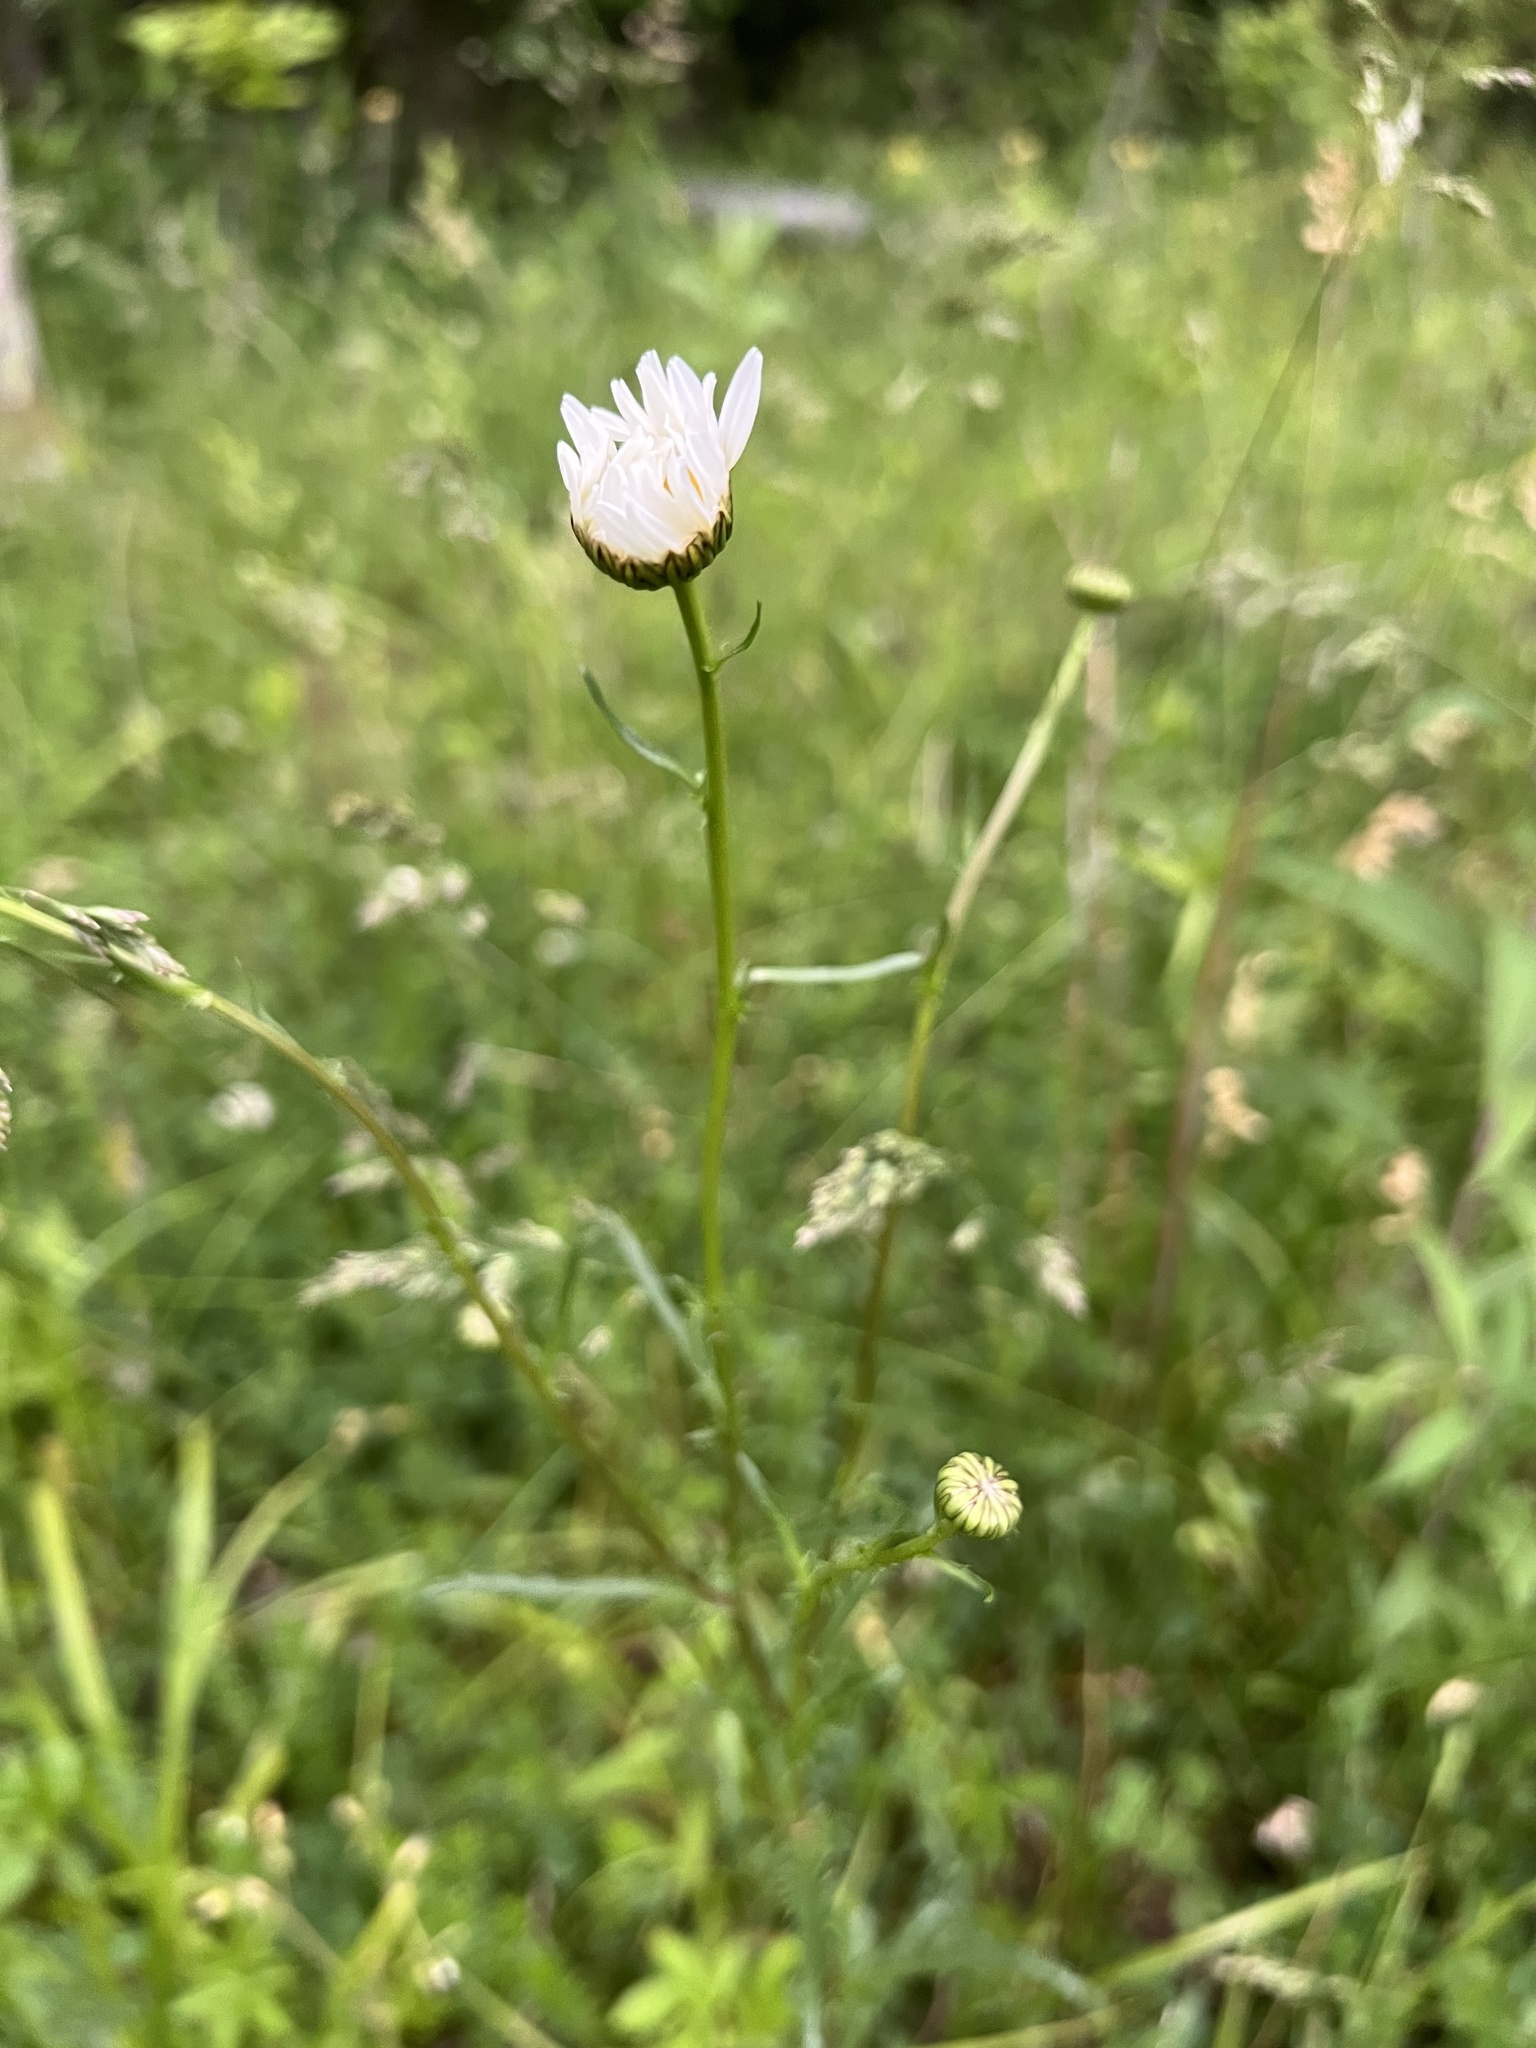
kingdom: Plantae
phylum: Tracheophyta
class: Magnoliopsida
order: Asterales
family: Asteraceae
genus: Leucanthemum
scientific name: Leucanthemum vulgare
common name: Oxeye daisy
